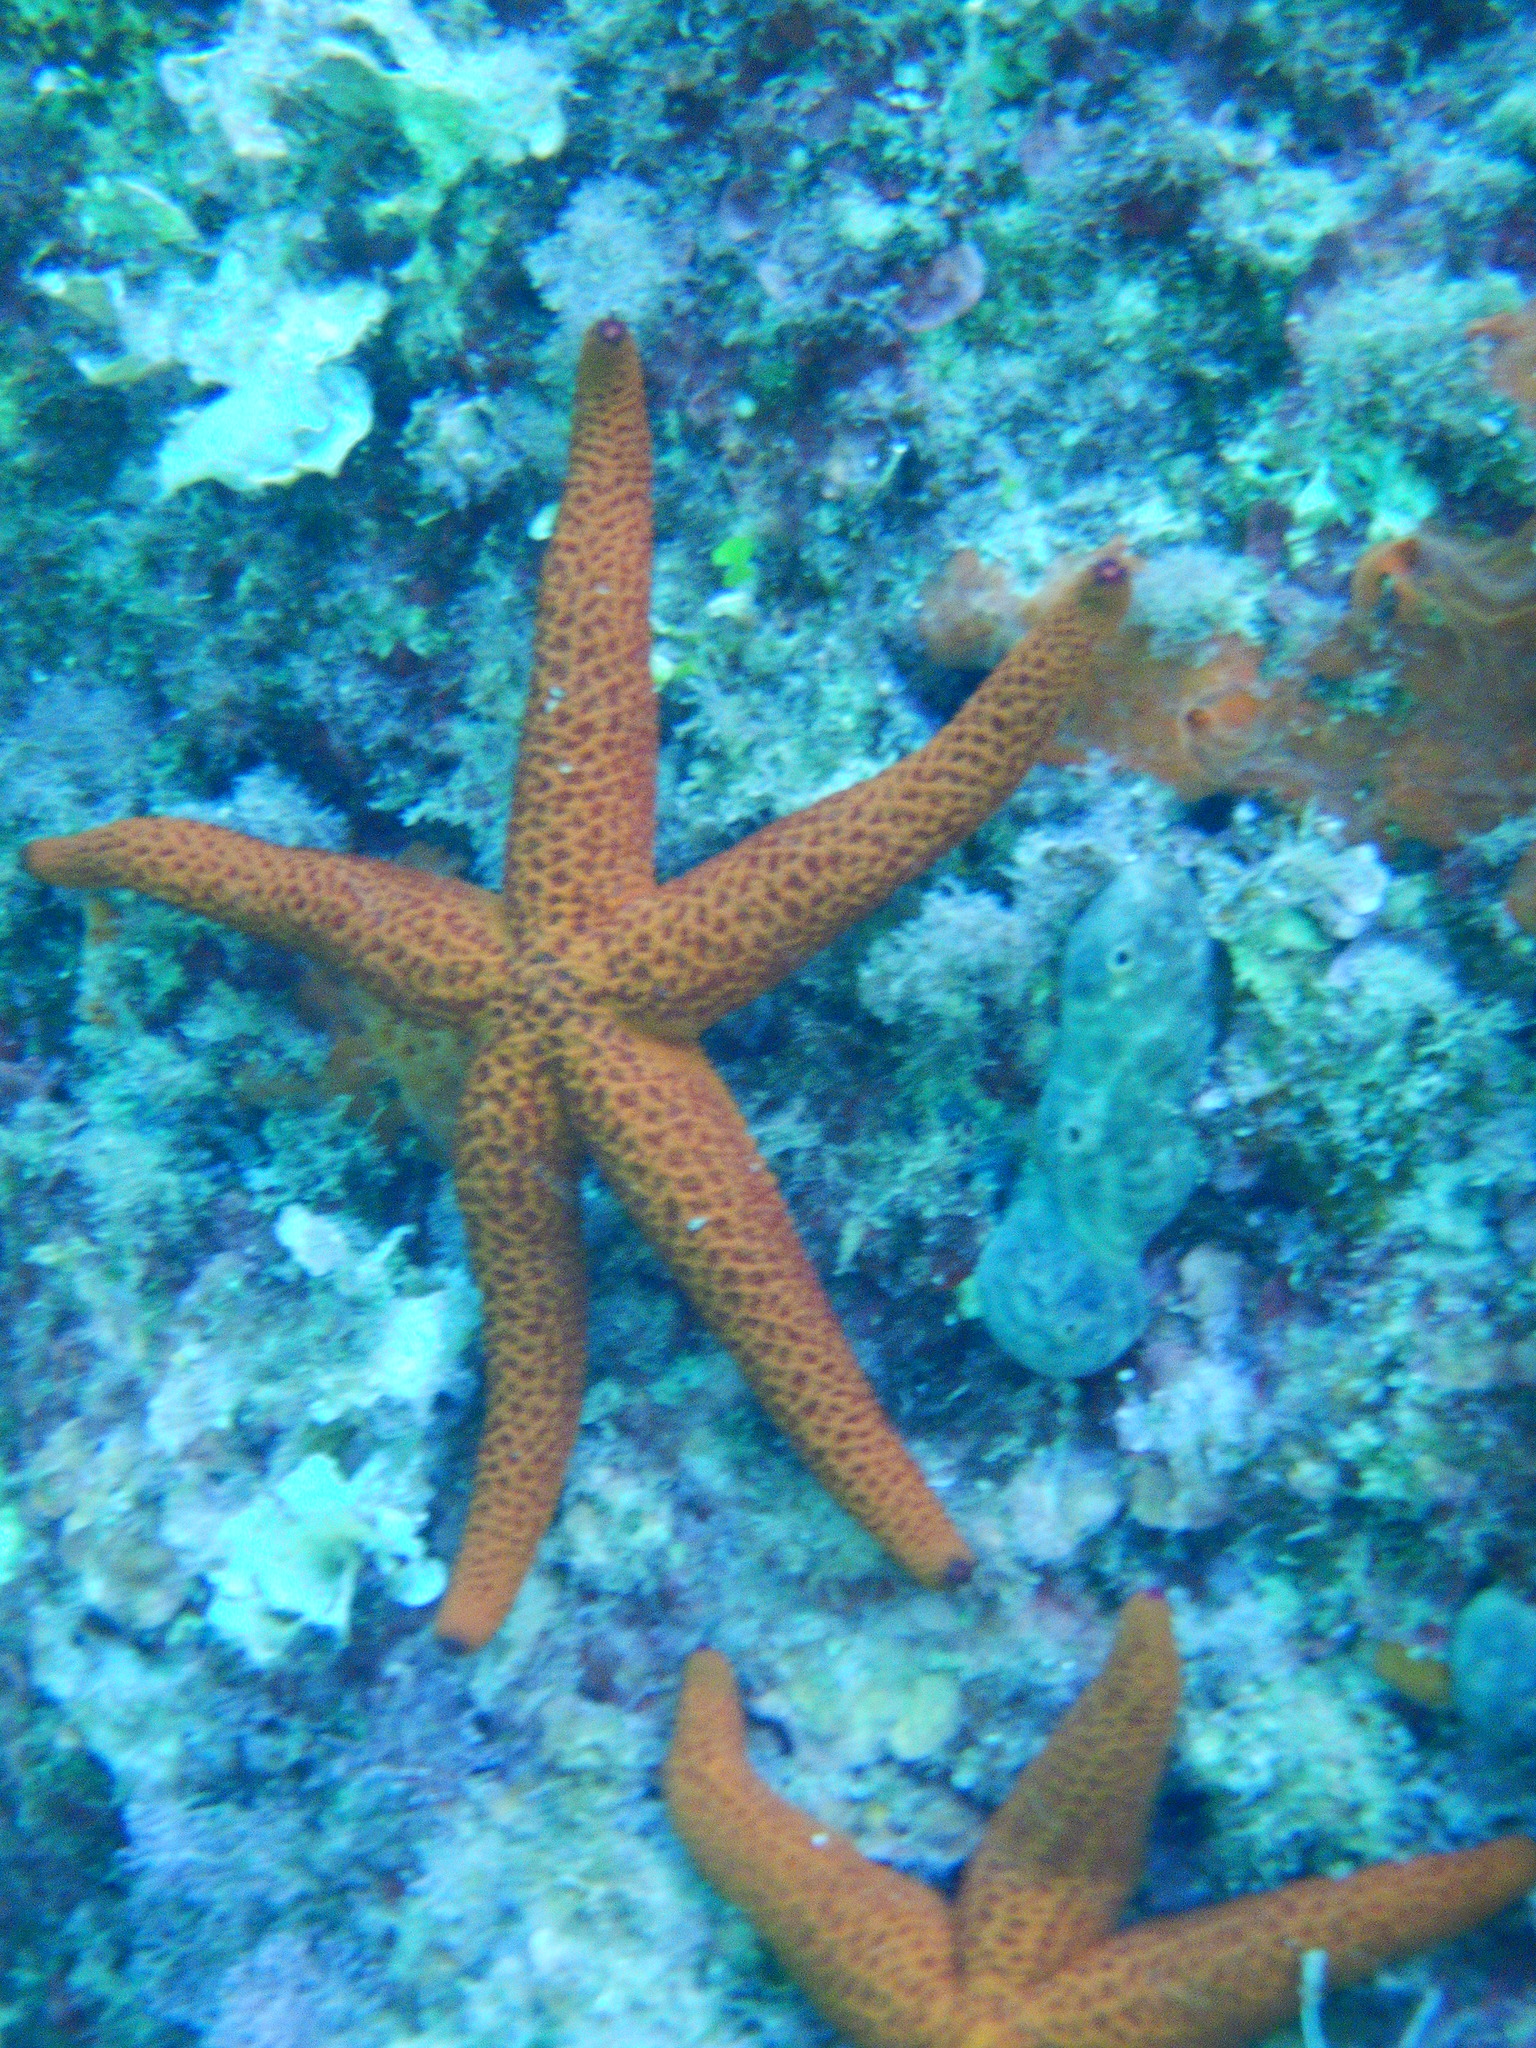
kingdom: Animalia
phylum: Echinodermata
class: Asteroidea
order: Spinulosida
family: Echinasteridae
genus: Echinaster
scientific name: Echinaster sepositus
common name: Red starfish
